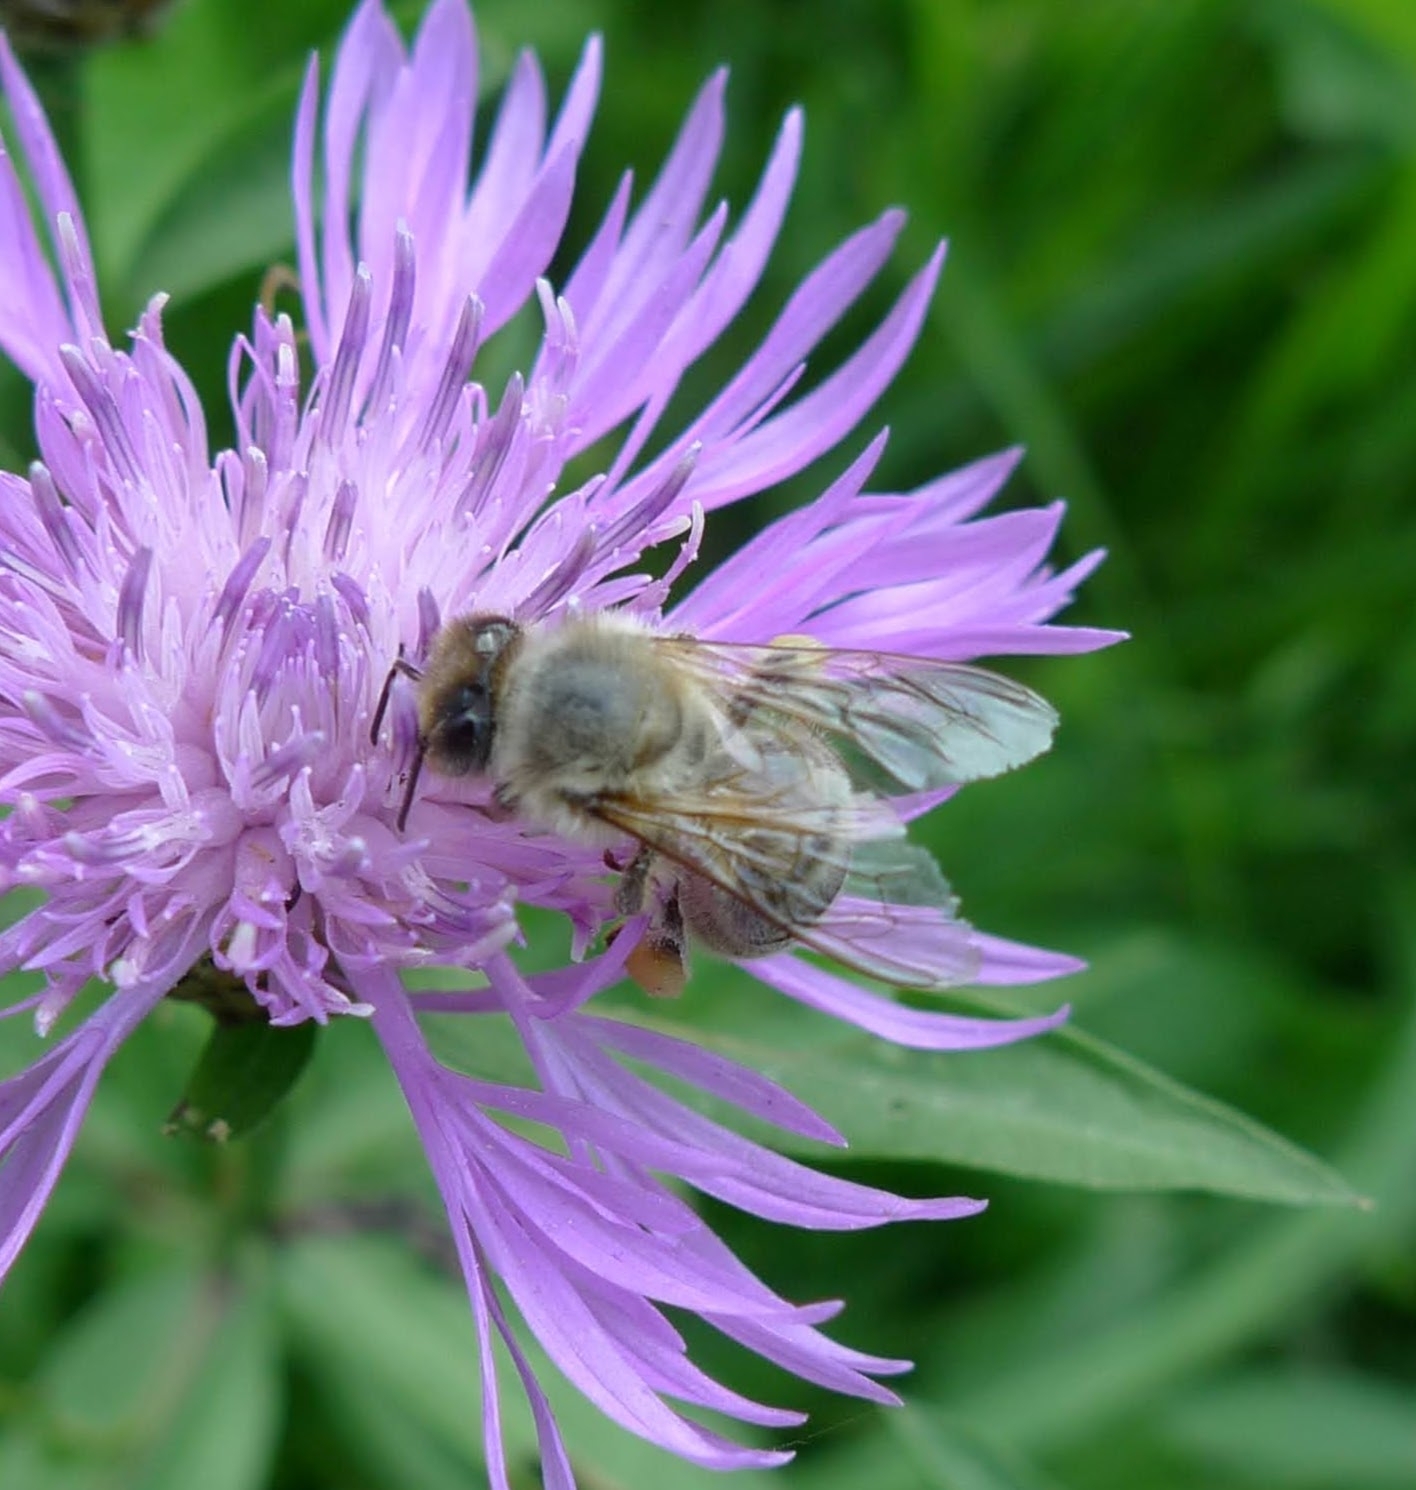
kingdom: Animalia
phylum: Arthropoda
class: Insecta
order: Hymenoptera
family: Apidae
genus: Apis
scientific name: Apis mellifera
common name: Honey bee
